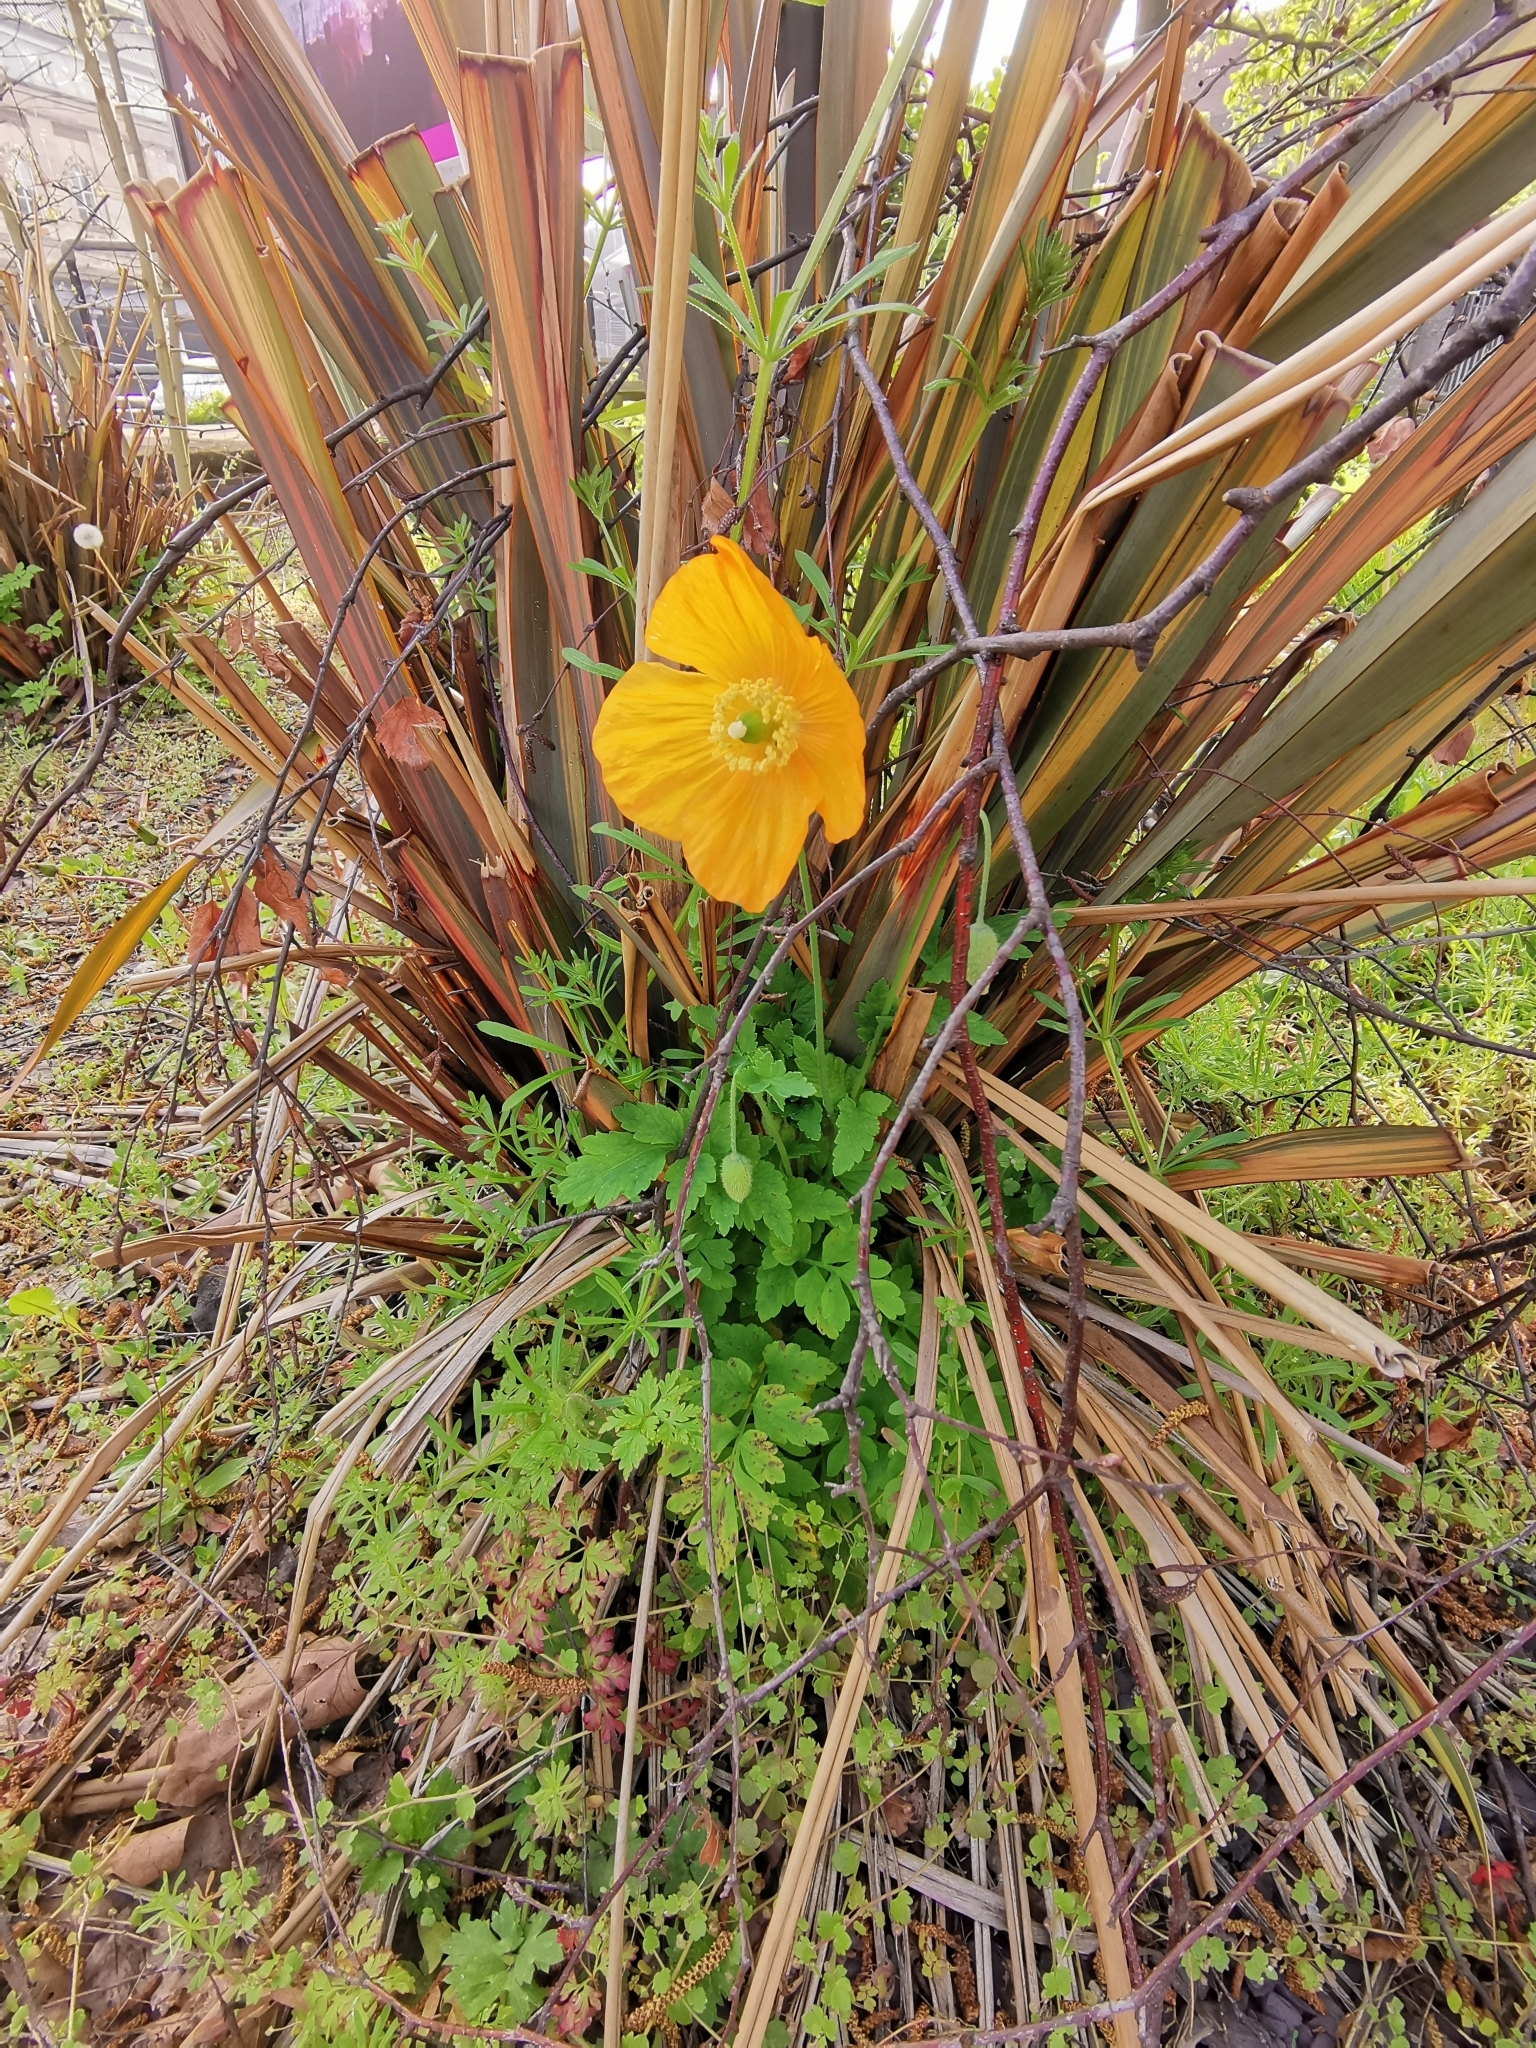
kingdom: Plantae
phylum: Tracheophyta
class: Magnoliopsida
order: Ranunculales
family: Papaveraceae
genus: Papaver
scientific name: Papaver cambricum
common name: Poppy
